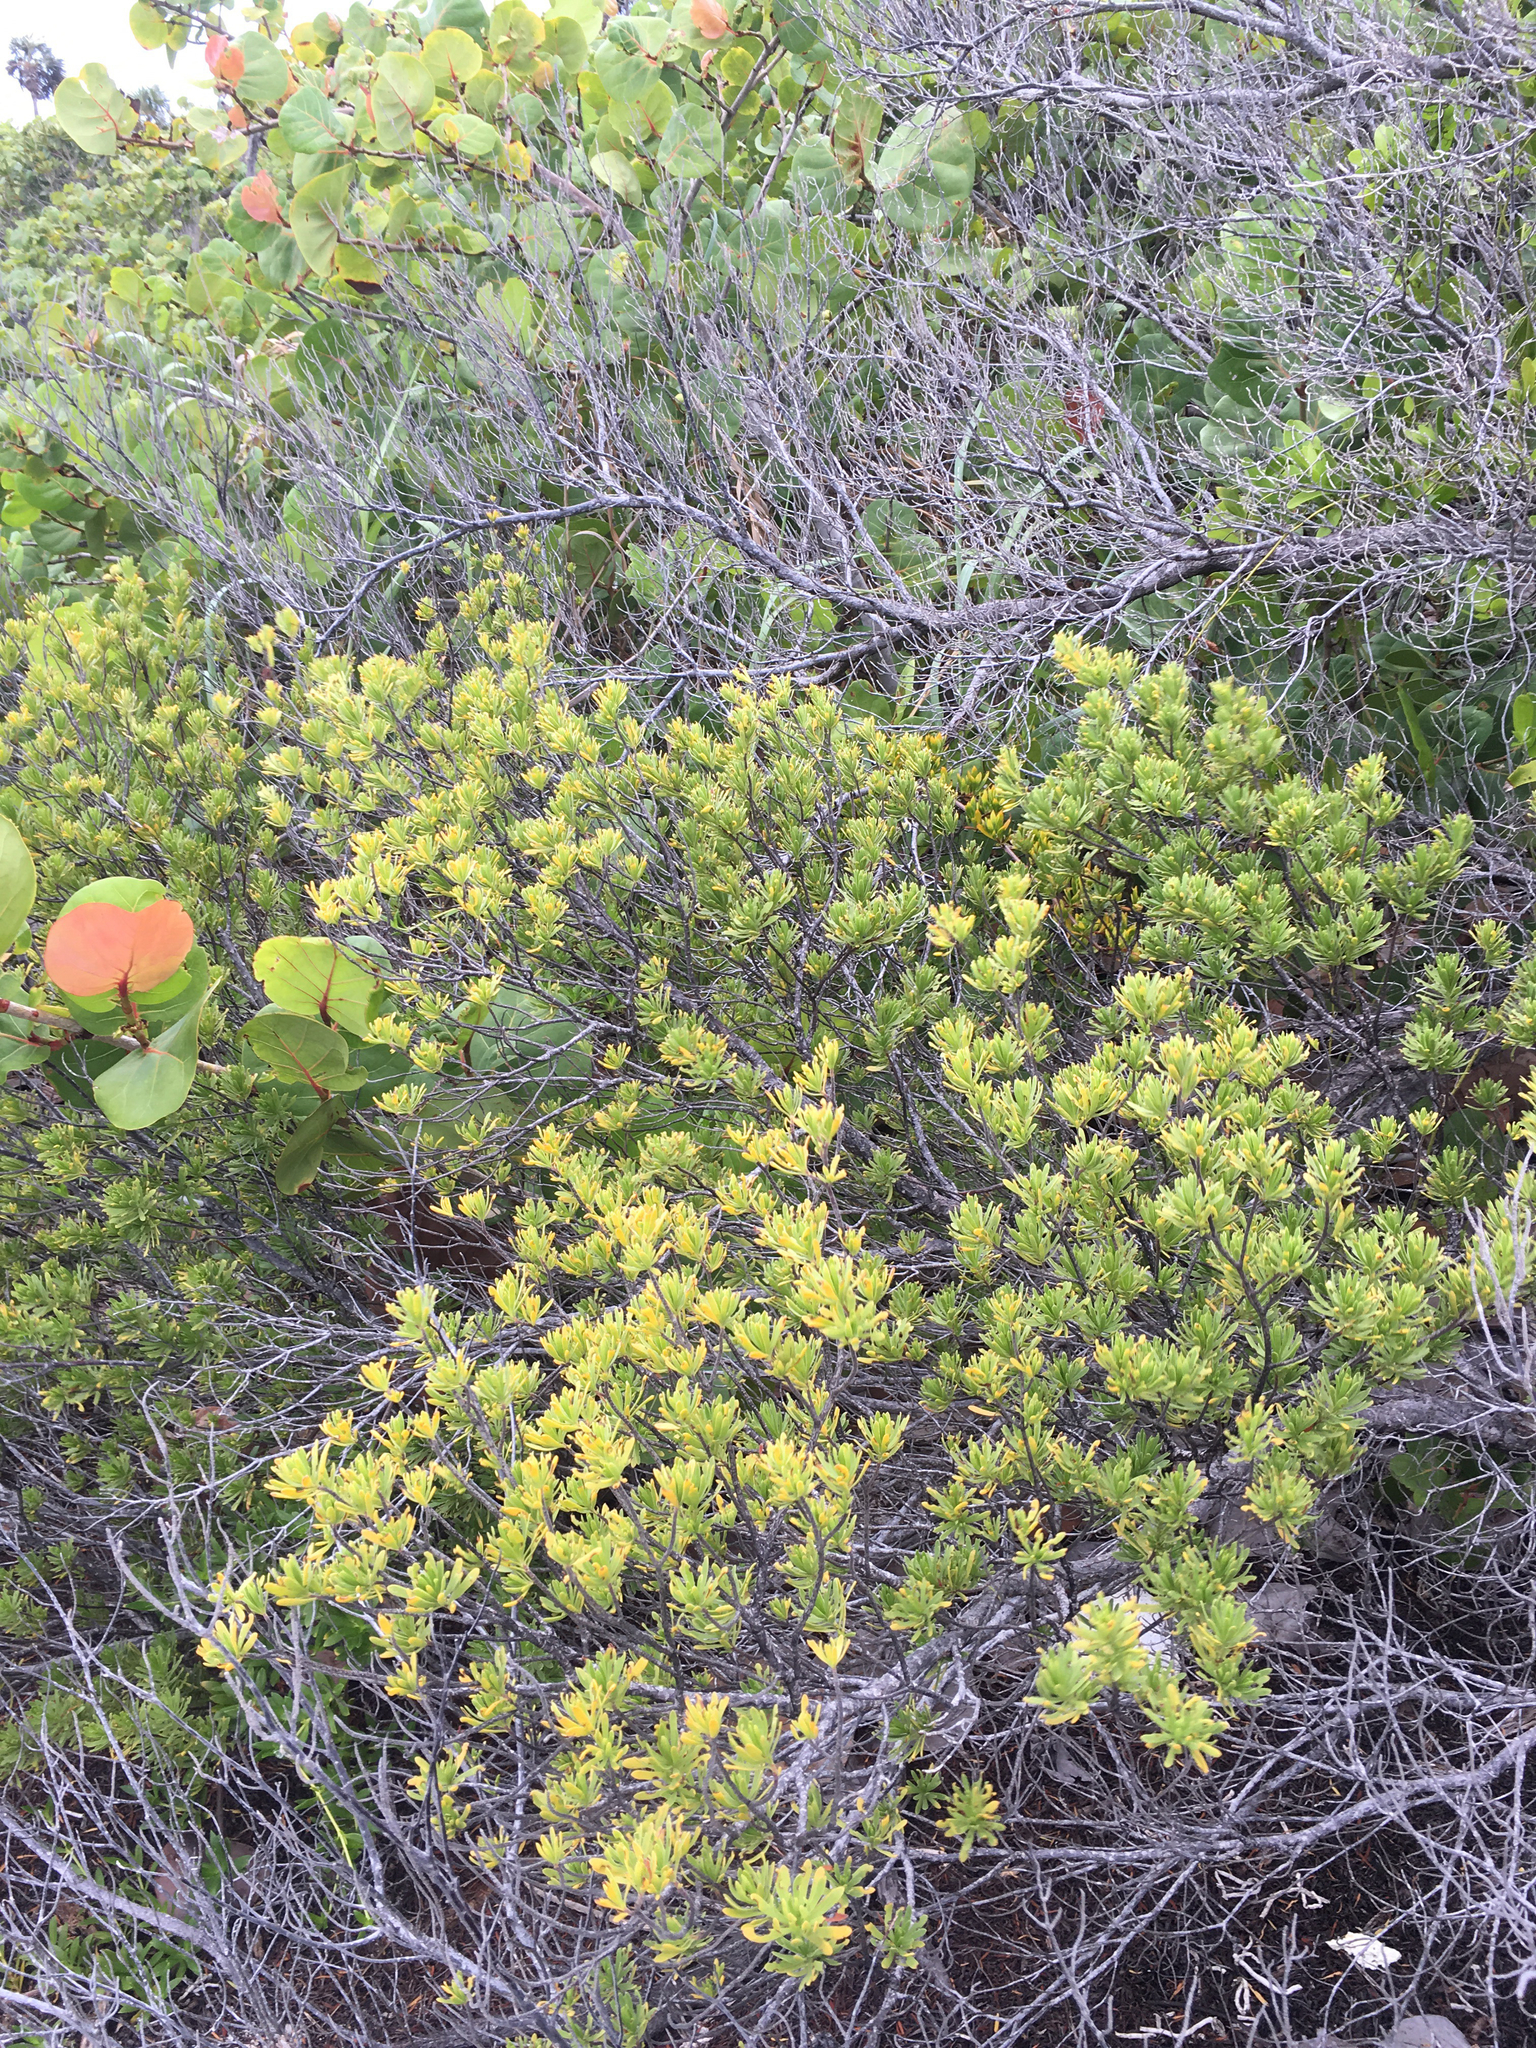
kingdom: Plantae
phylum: Tracheophyta
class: Magnoliopsida
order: Fabales
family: Surianaceae
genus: Suriana
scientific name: Suriana maritima
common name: Bay-cedar
